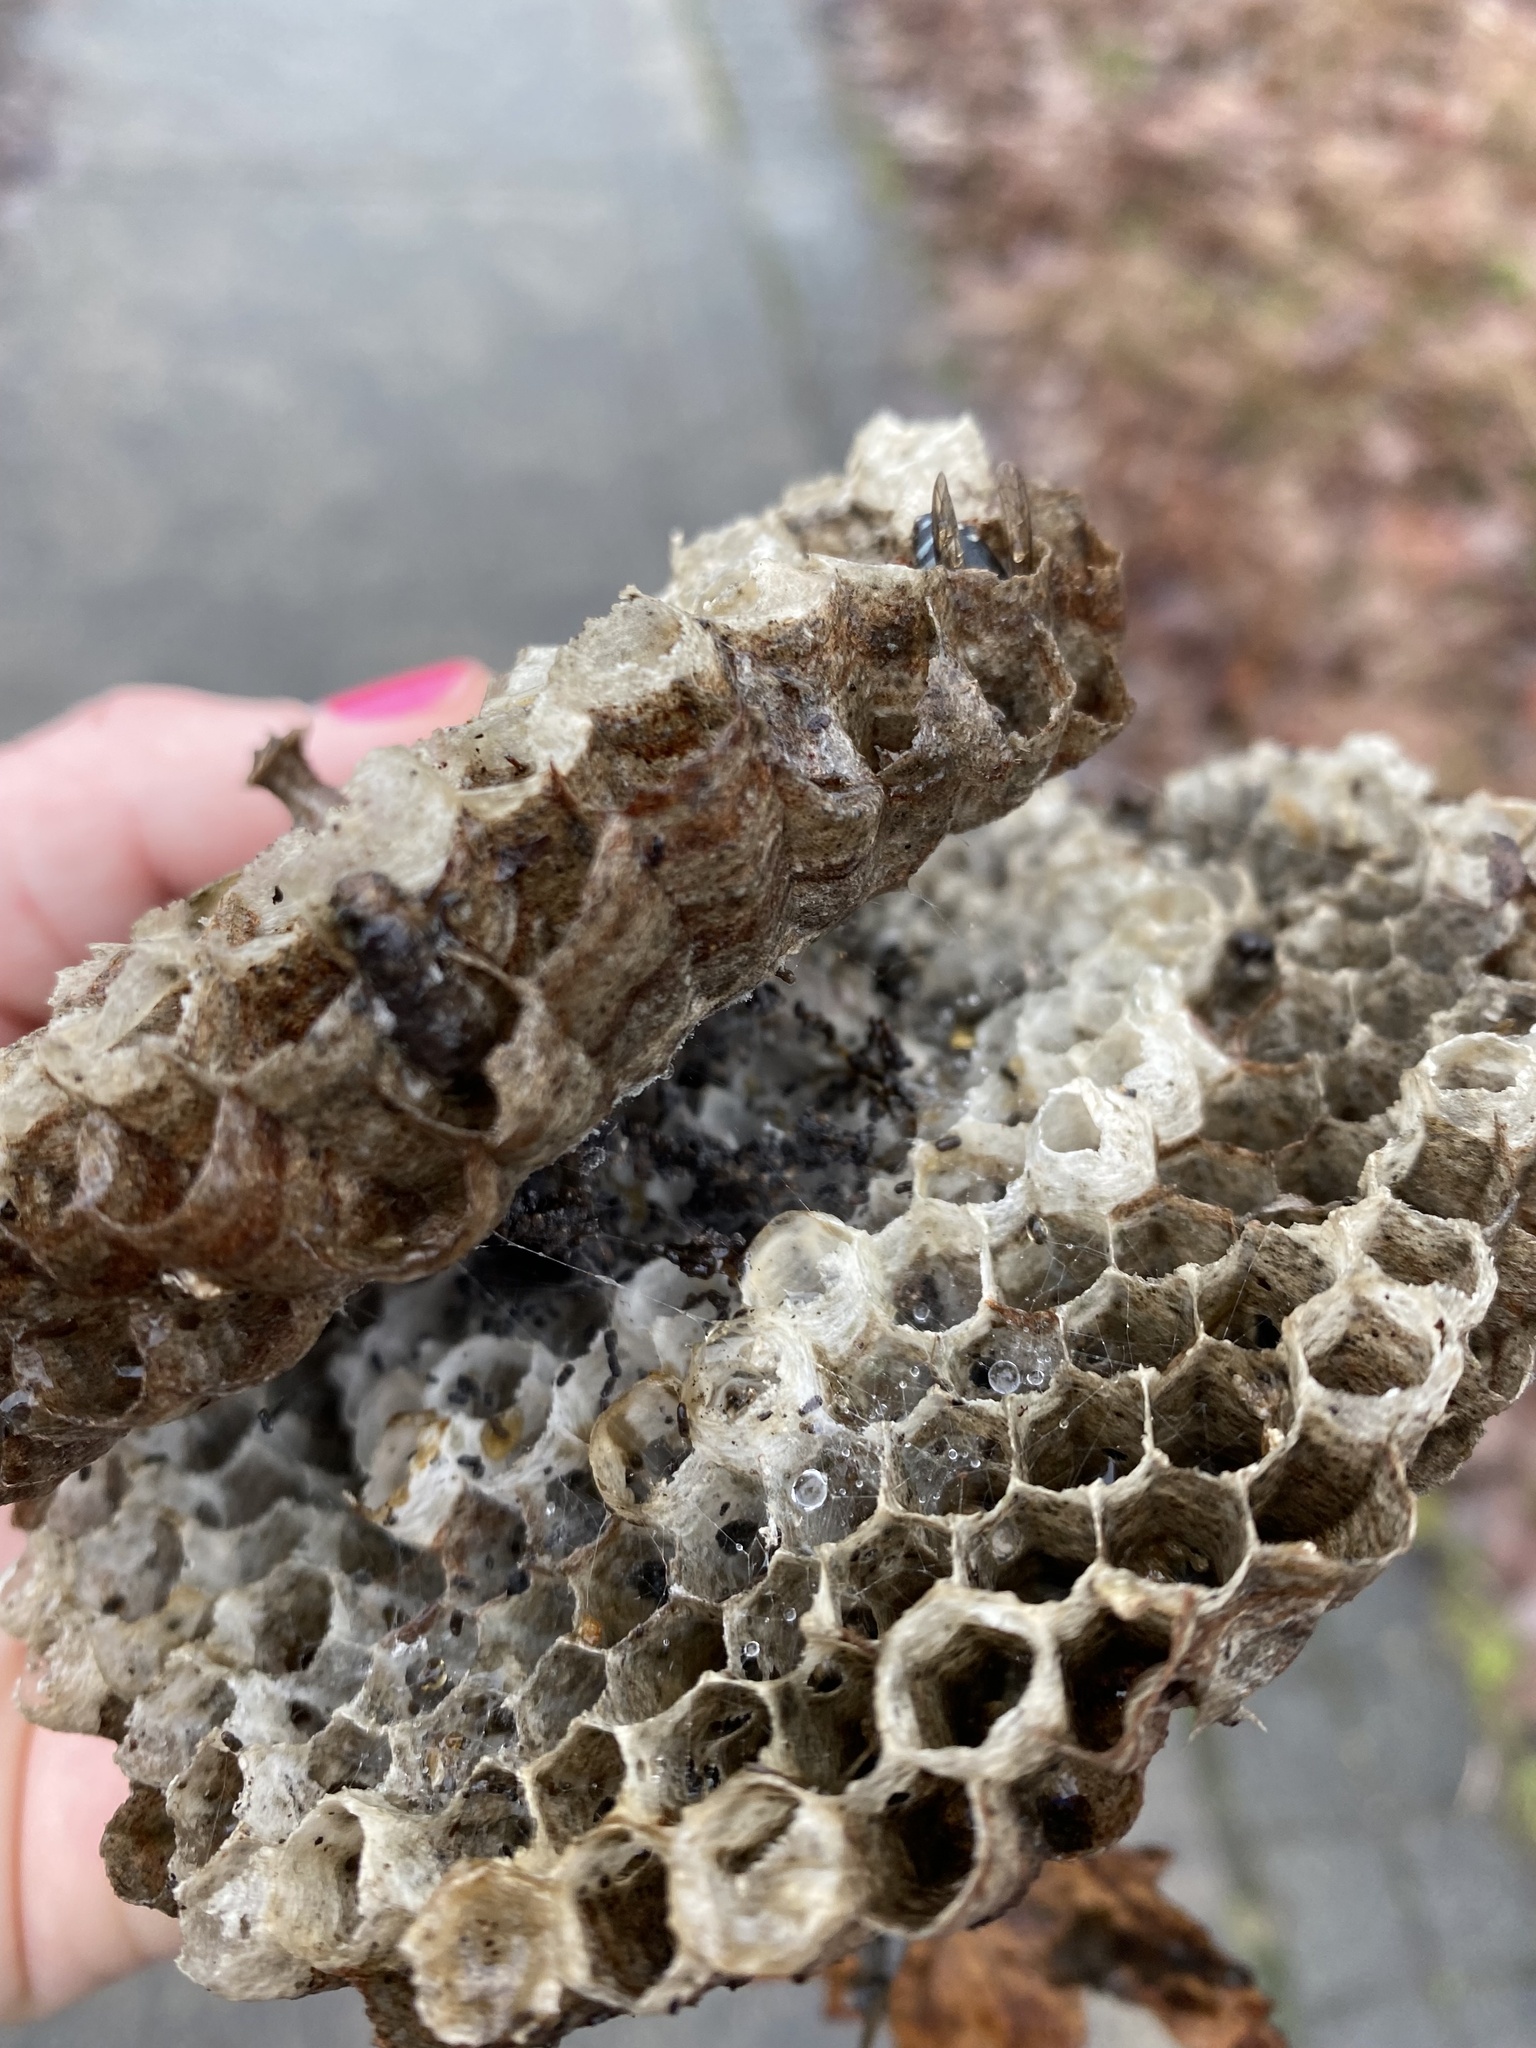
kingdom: Animalia
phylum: Arthropoda
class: Insecta
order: Hymenoptera
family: Vespidae
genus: Dolichovespula
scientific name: Dolichovespula maculata
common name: Bald-faced hornet
